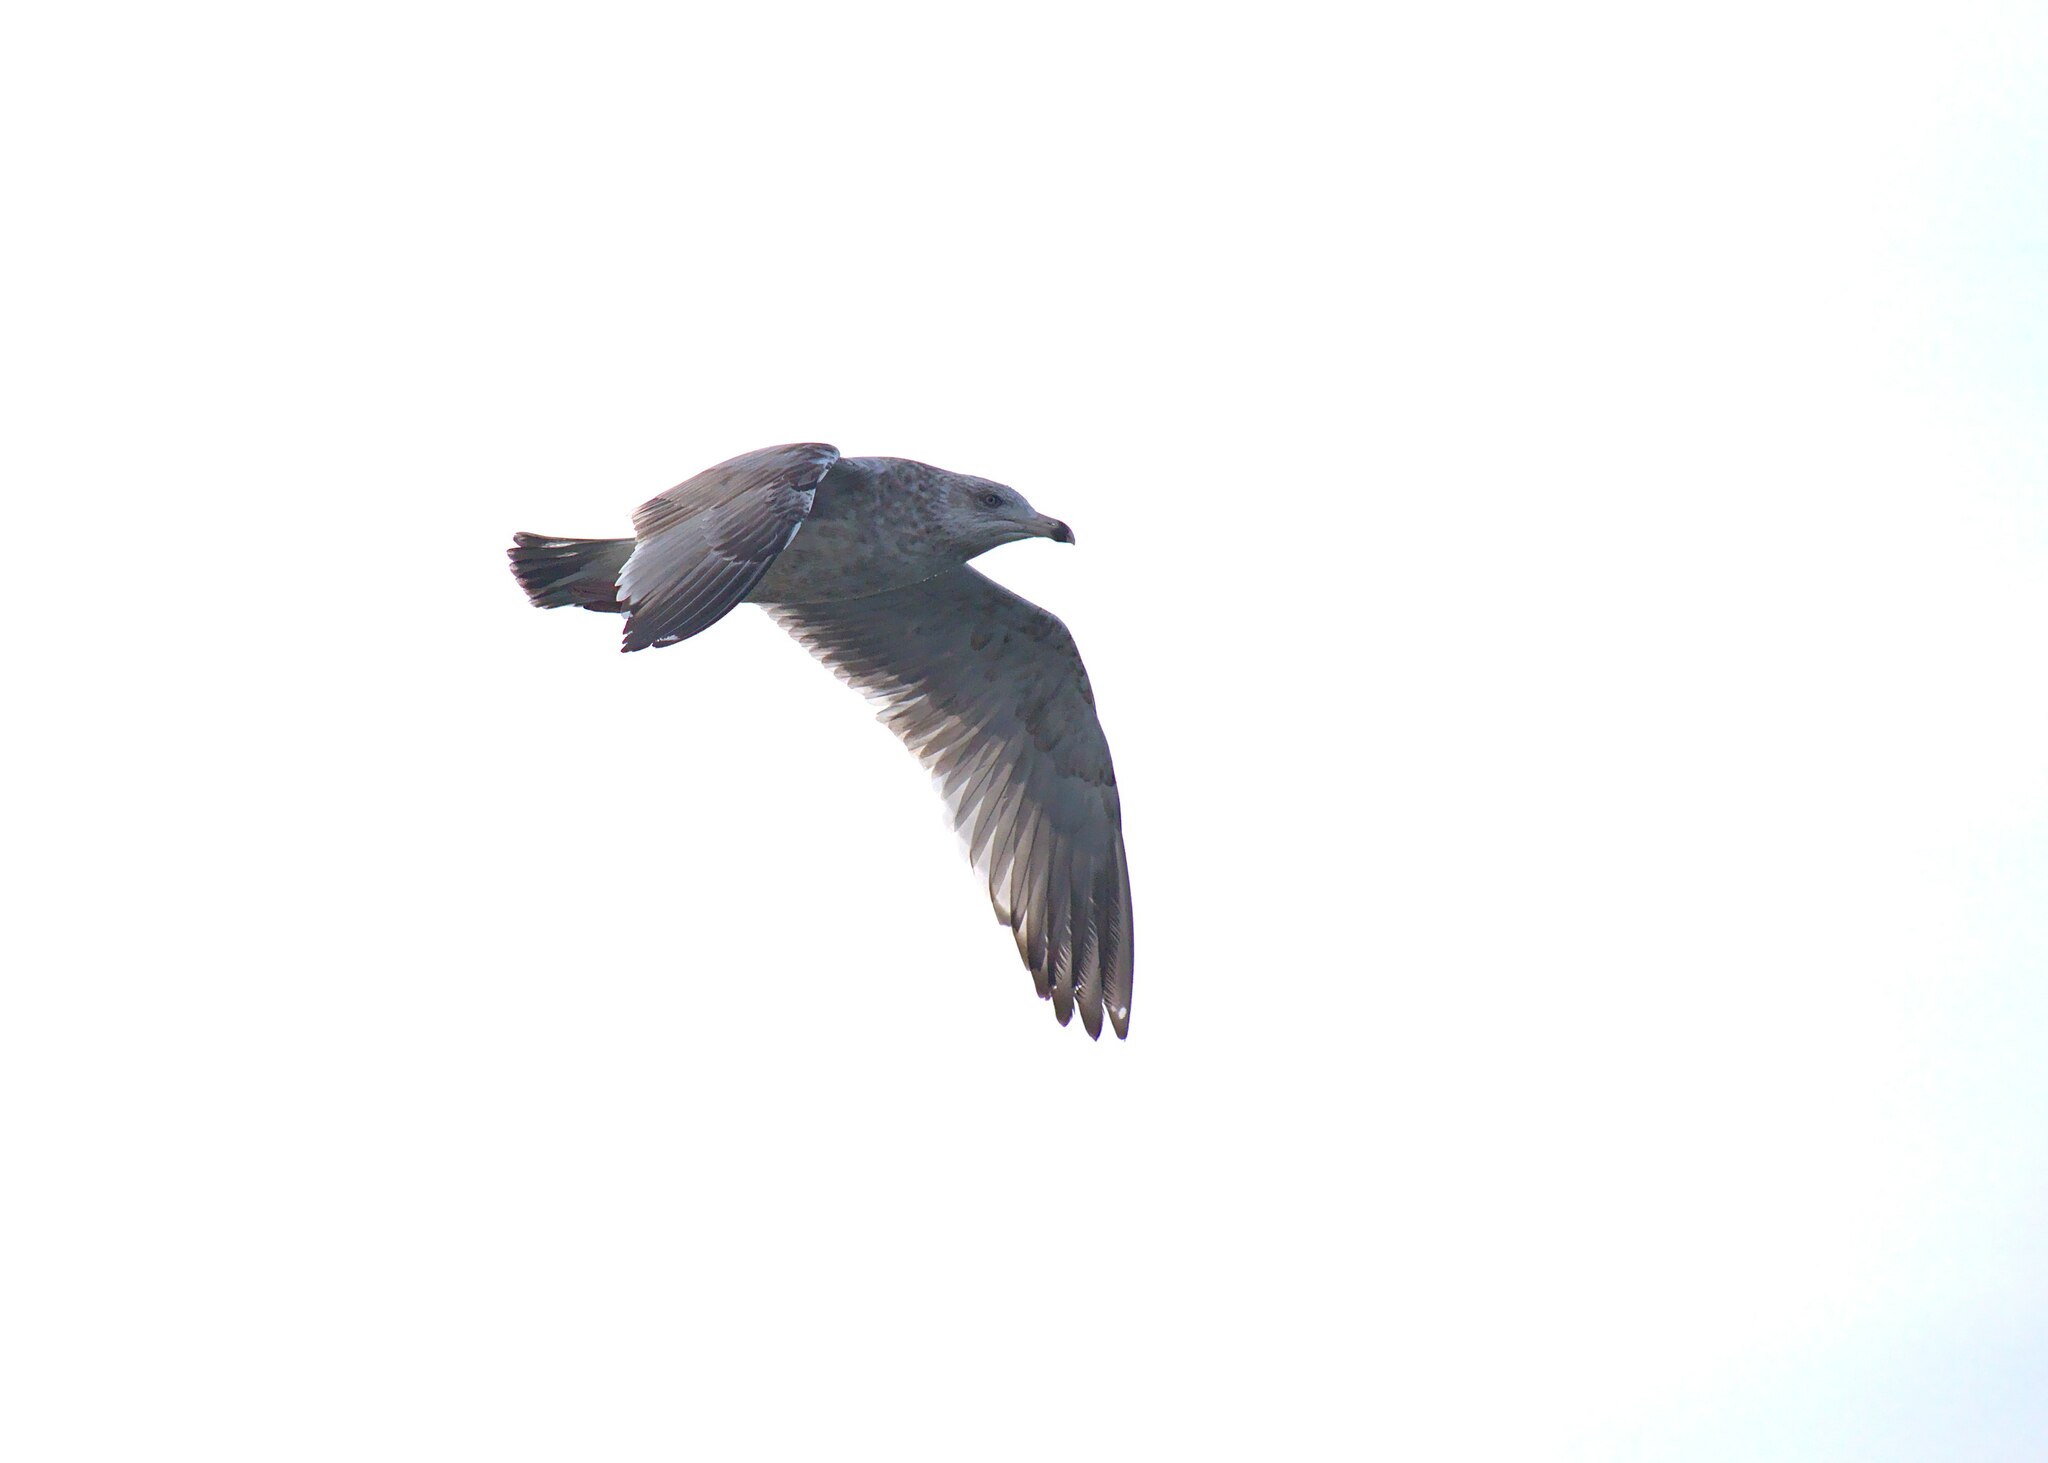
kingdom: Animalia
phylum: Chordata
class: Aves
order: Charadriiformes
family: Laridae
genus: Larus
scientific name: Larus delawarensis
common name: Ring-billed gull
